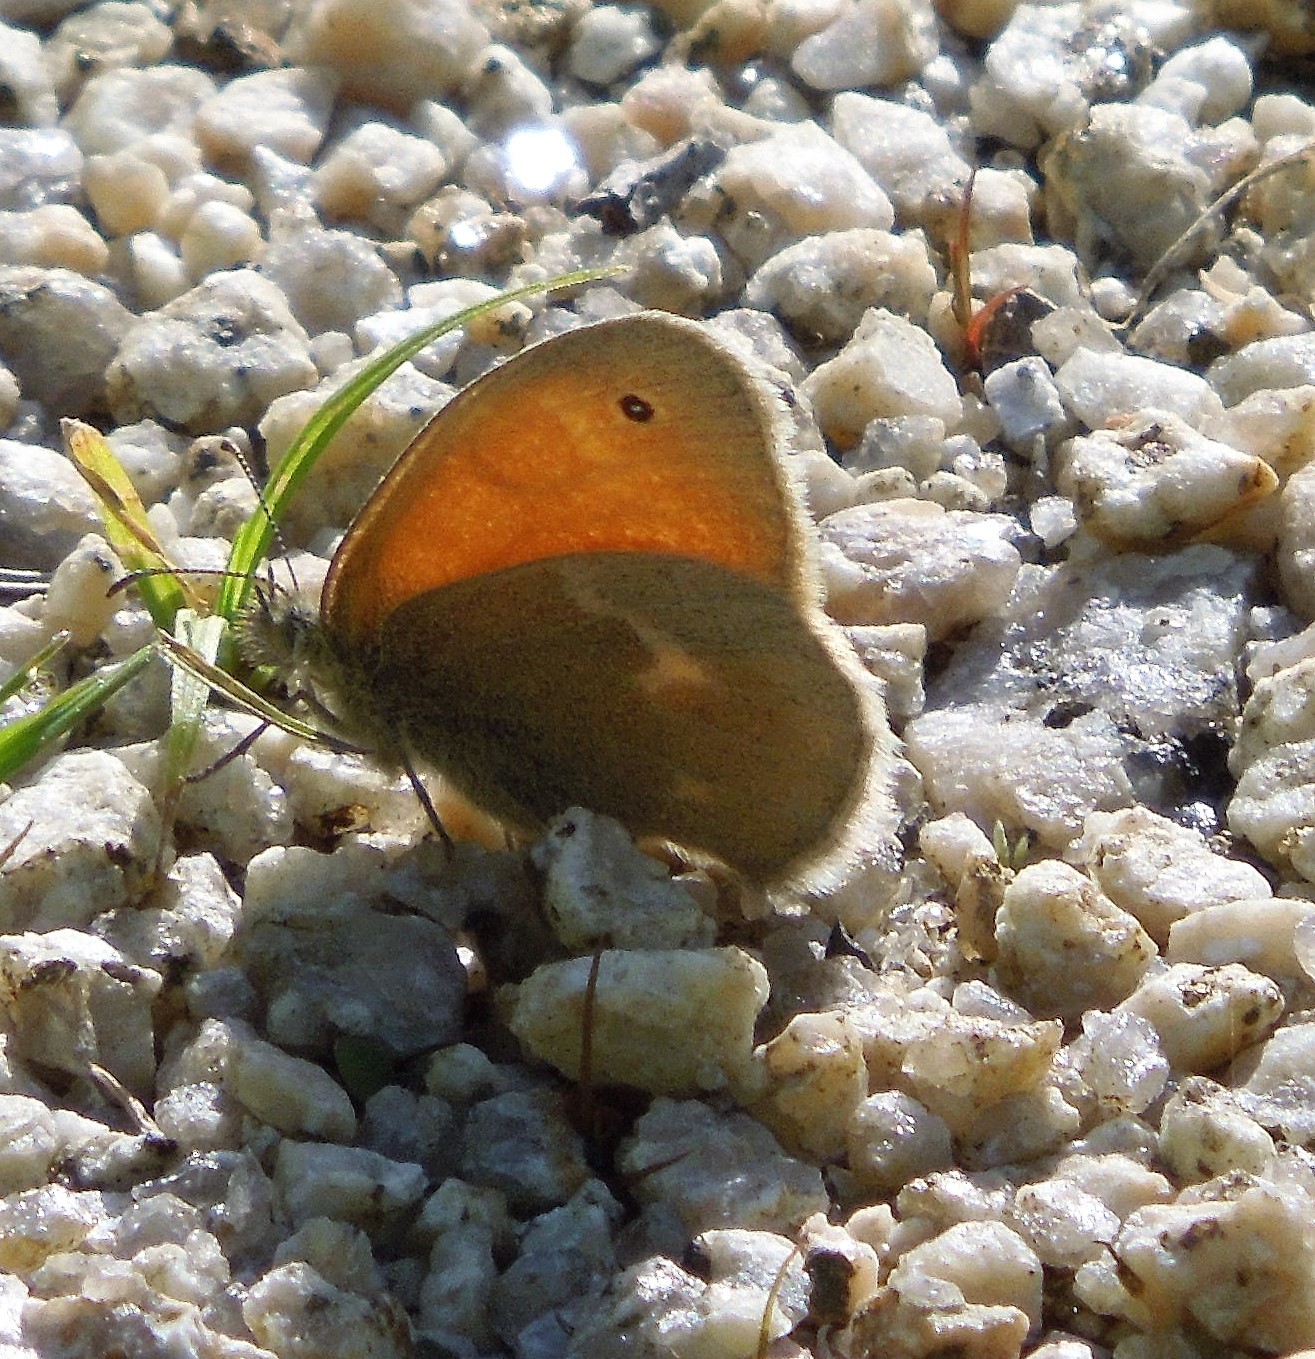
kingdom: Animalia
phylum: Arthropoda
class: Insecta
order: Lepidoptera
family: Nymphalidae
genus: Coenonympha
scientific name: Coenonympha california
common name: Common ringlet
